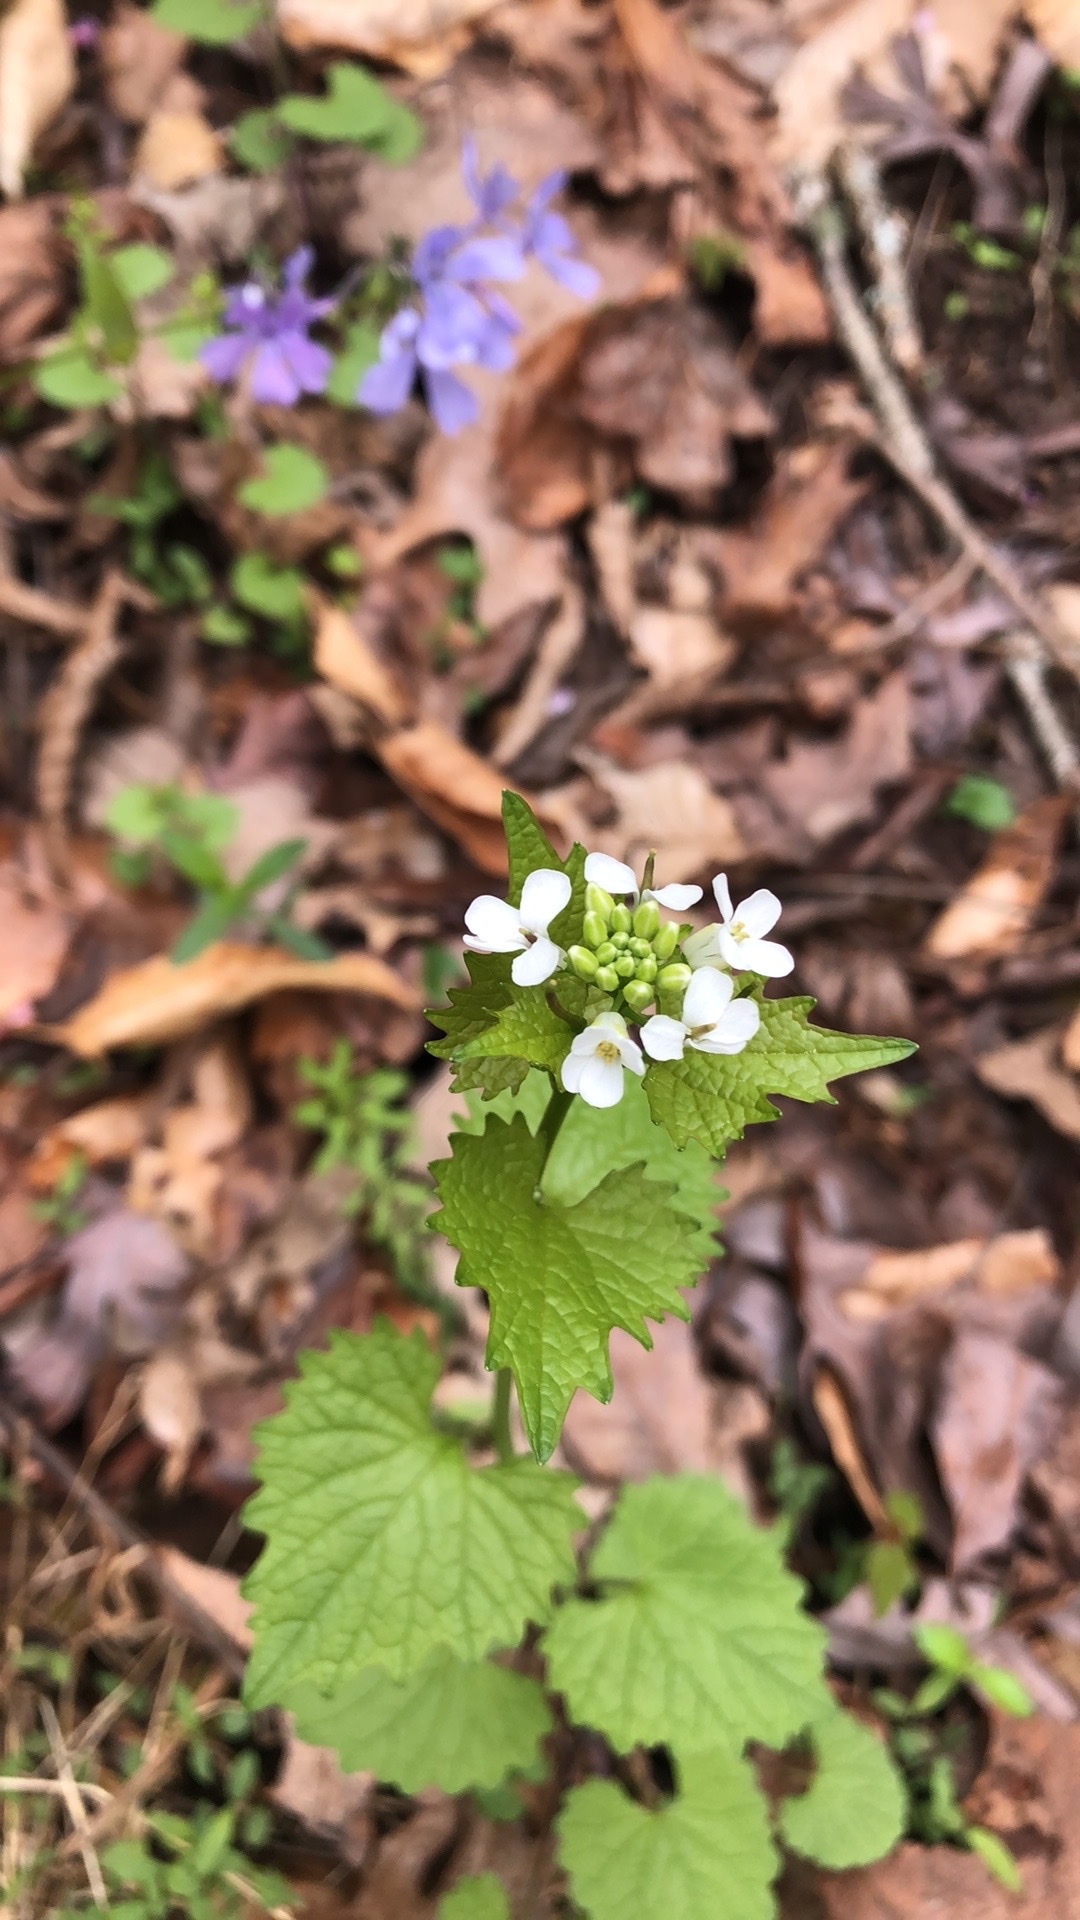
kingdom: Plantae
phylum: Tracheophyta
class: Magnoliopsida
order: Brassicales
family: Brassicaceae
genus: Alliaria
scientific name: Alliaria petiolata
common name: Garlic mustard
